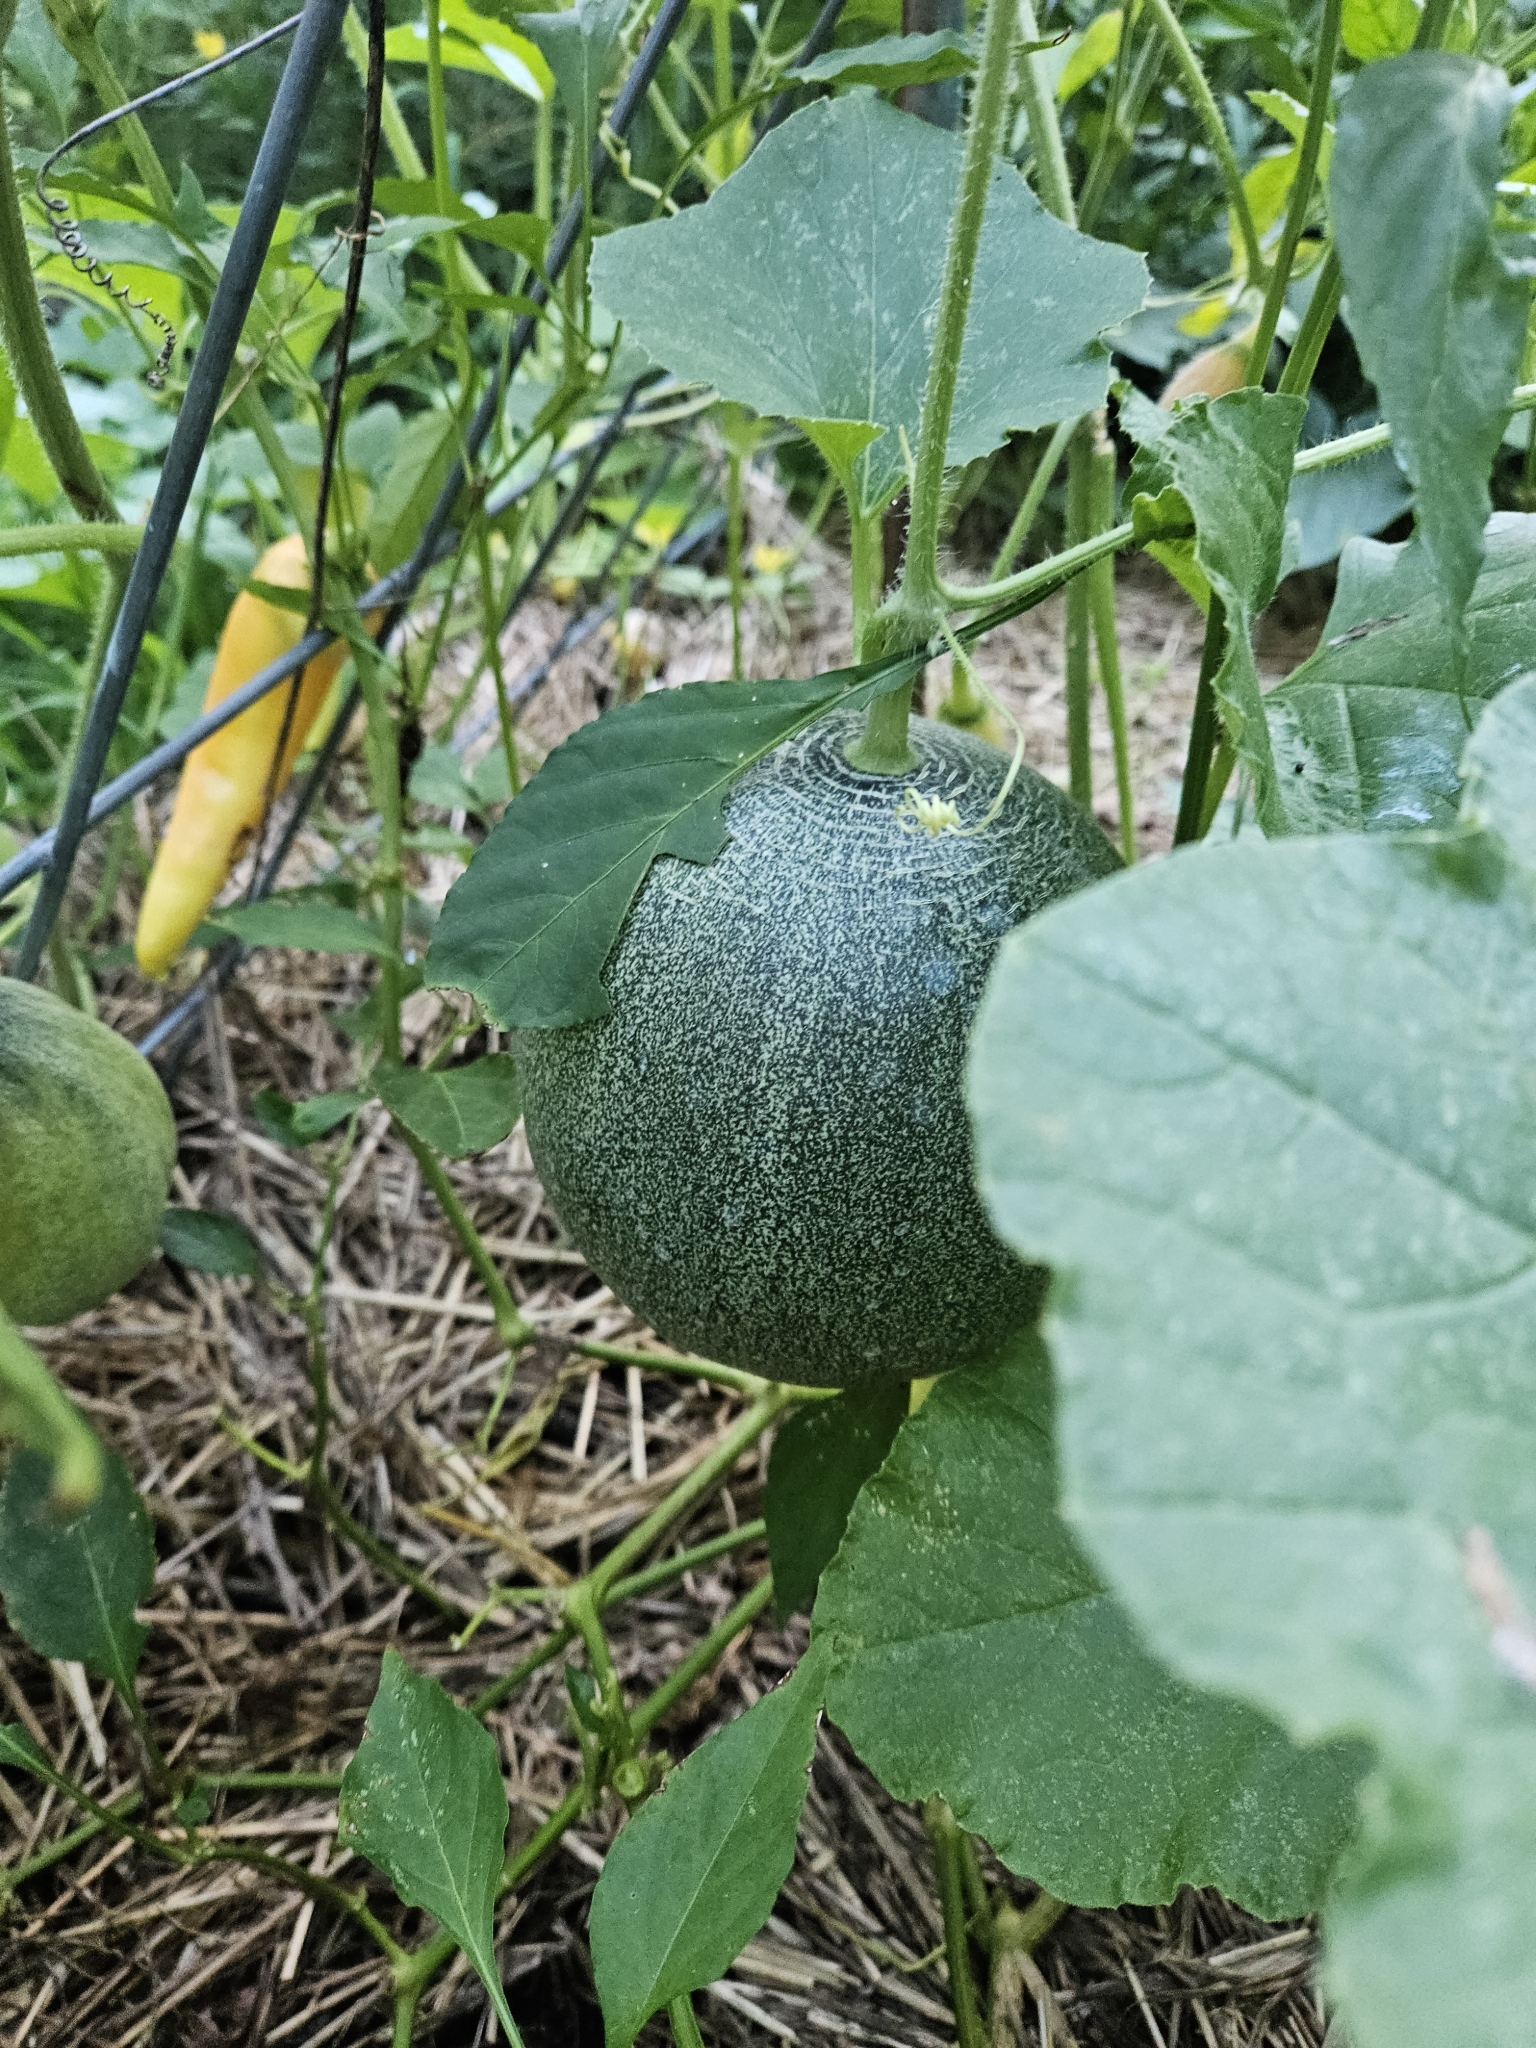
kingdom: Plantae
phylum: Tracheophyta
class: Magnoliopsida
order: Cucurbitales
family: Cucurbitaceae
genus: Cucumis
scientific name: Cucumis melo
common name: Melon
